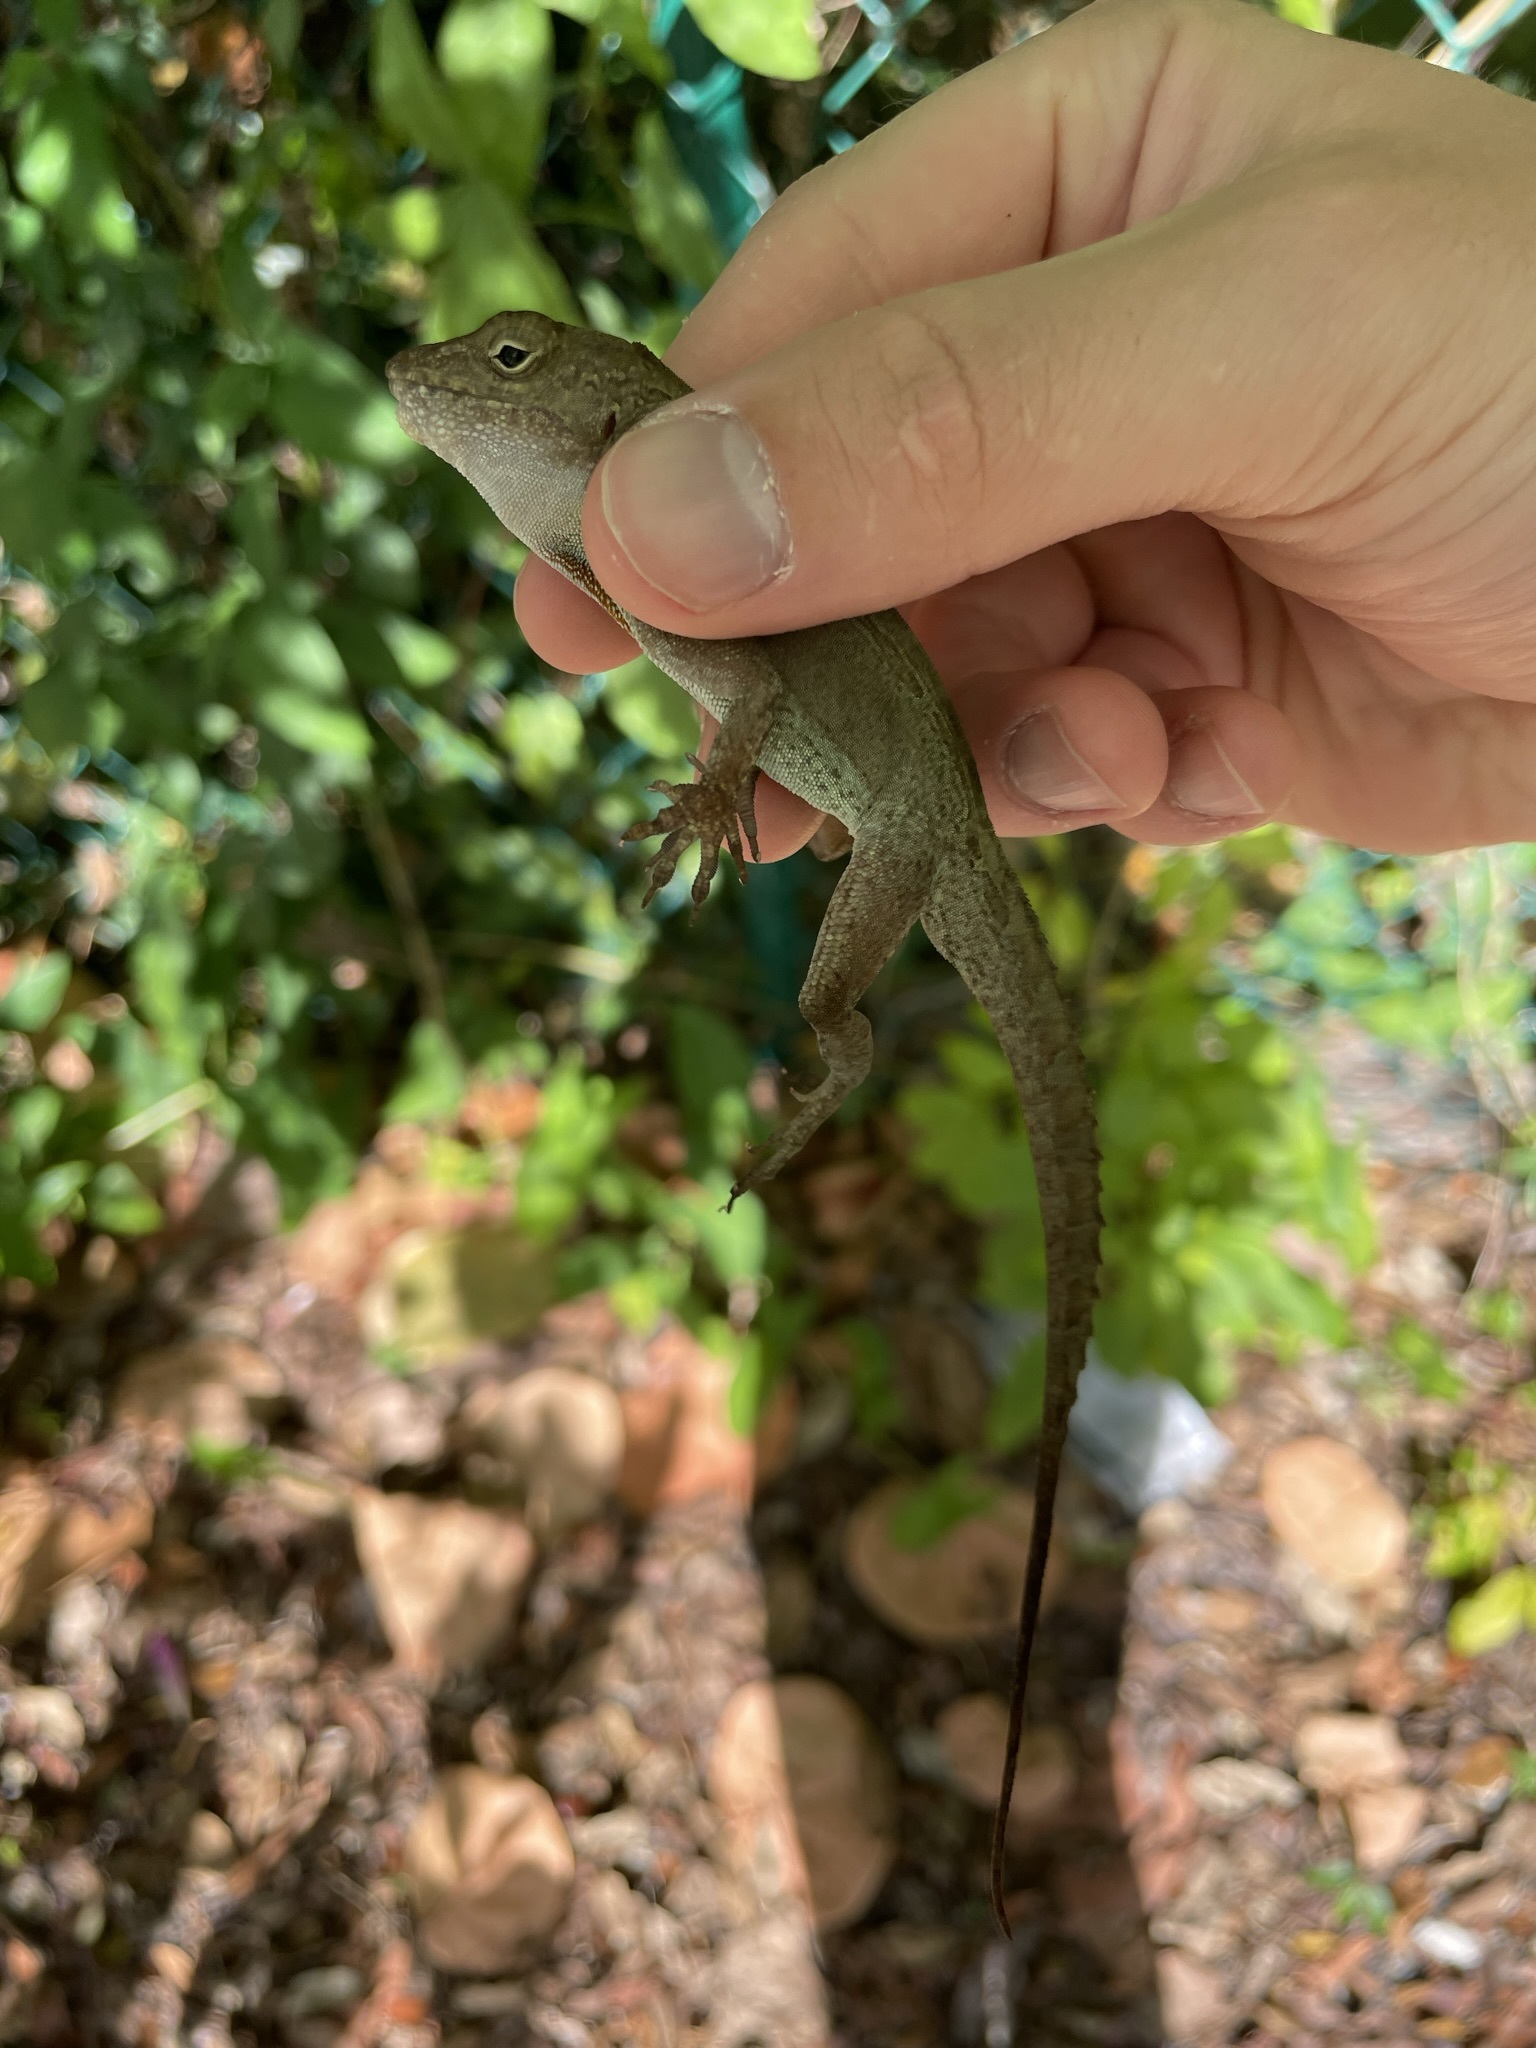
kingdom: Animalia
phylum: Chordata
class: Squamata
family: Dactyloidae
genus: Anolis
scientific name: Anolis cristatellus
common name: Crested anole
